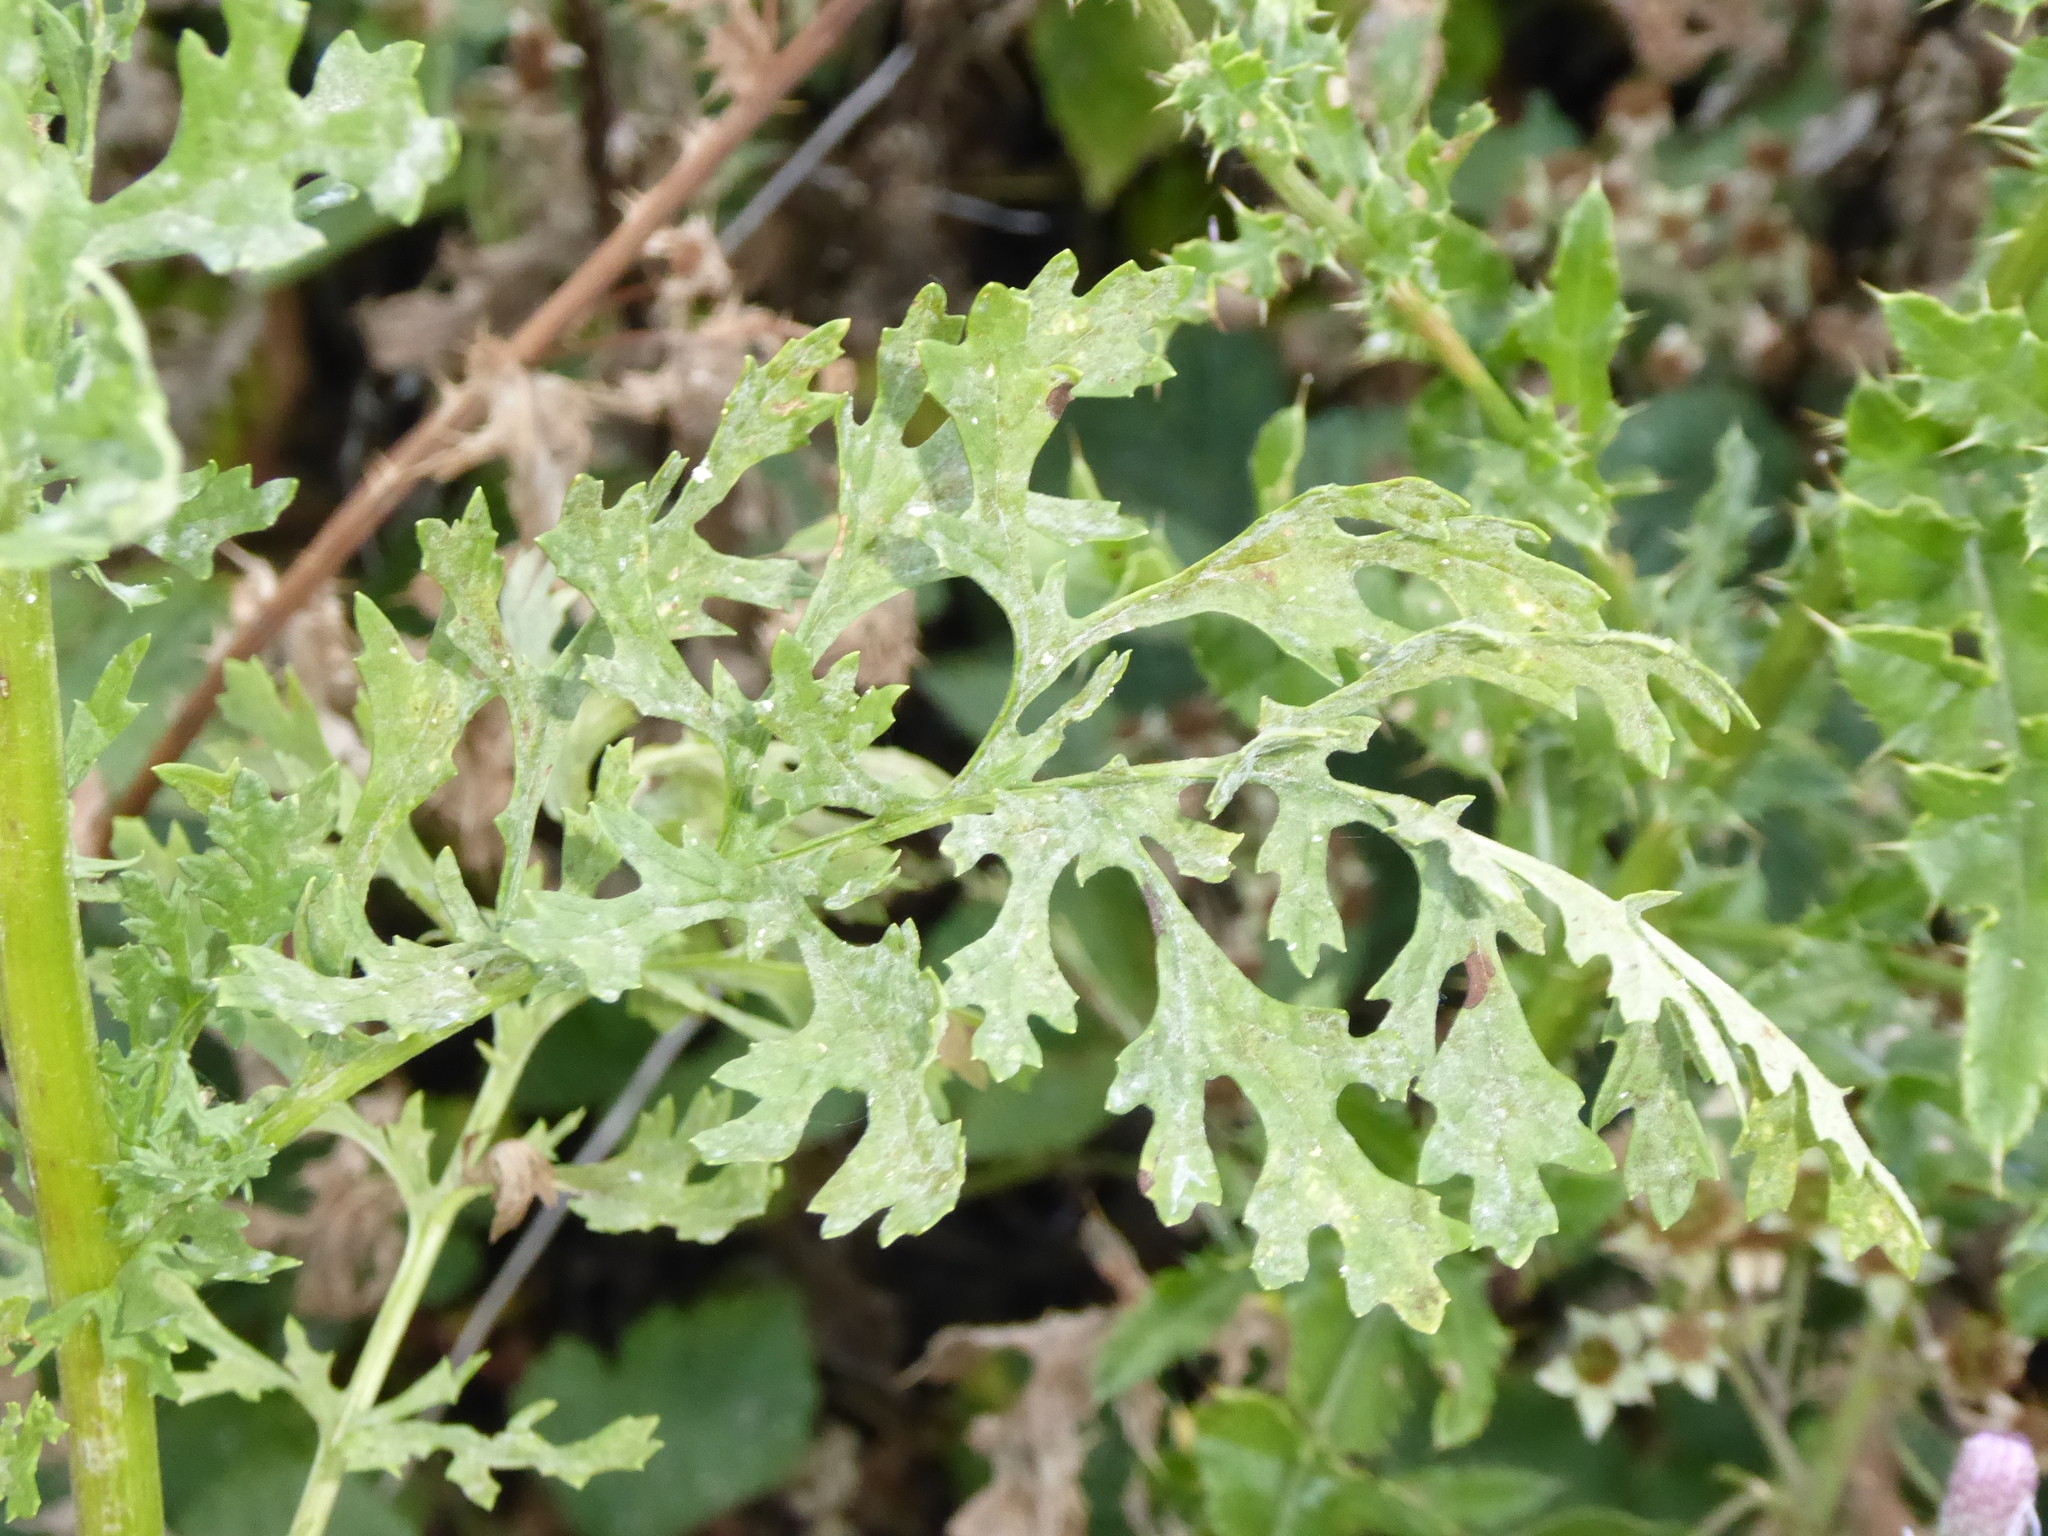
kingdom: Plantae
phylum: Tracheophyta
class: Magnoliopsida
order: Asterales
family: Asteraceae
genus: Jacobaea
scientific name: Jacobaea vulgaris
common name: Stinking willie
